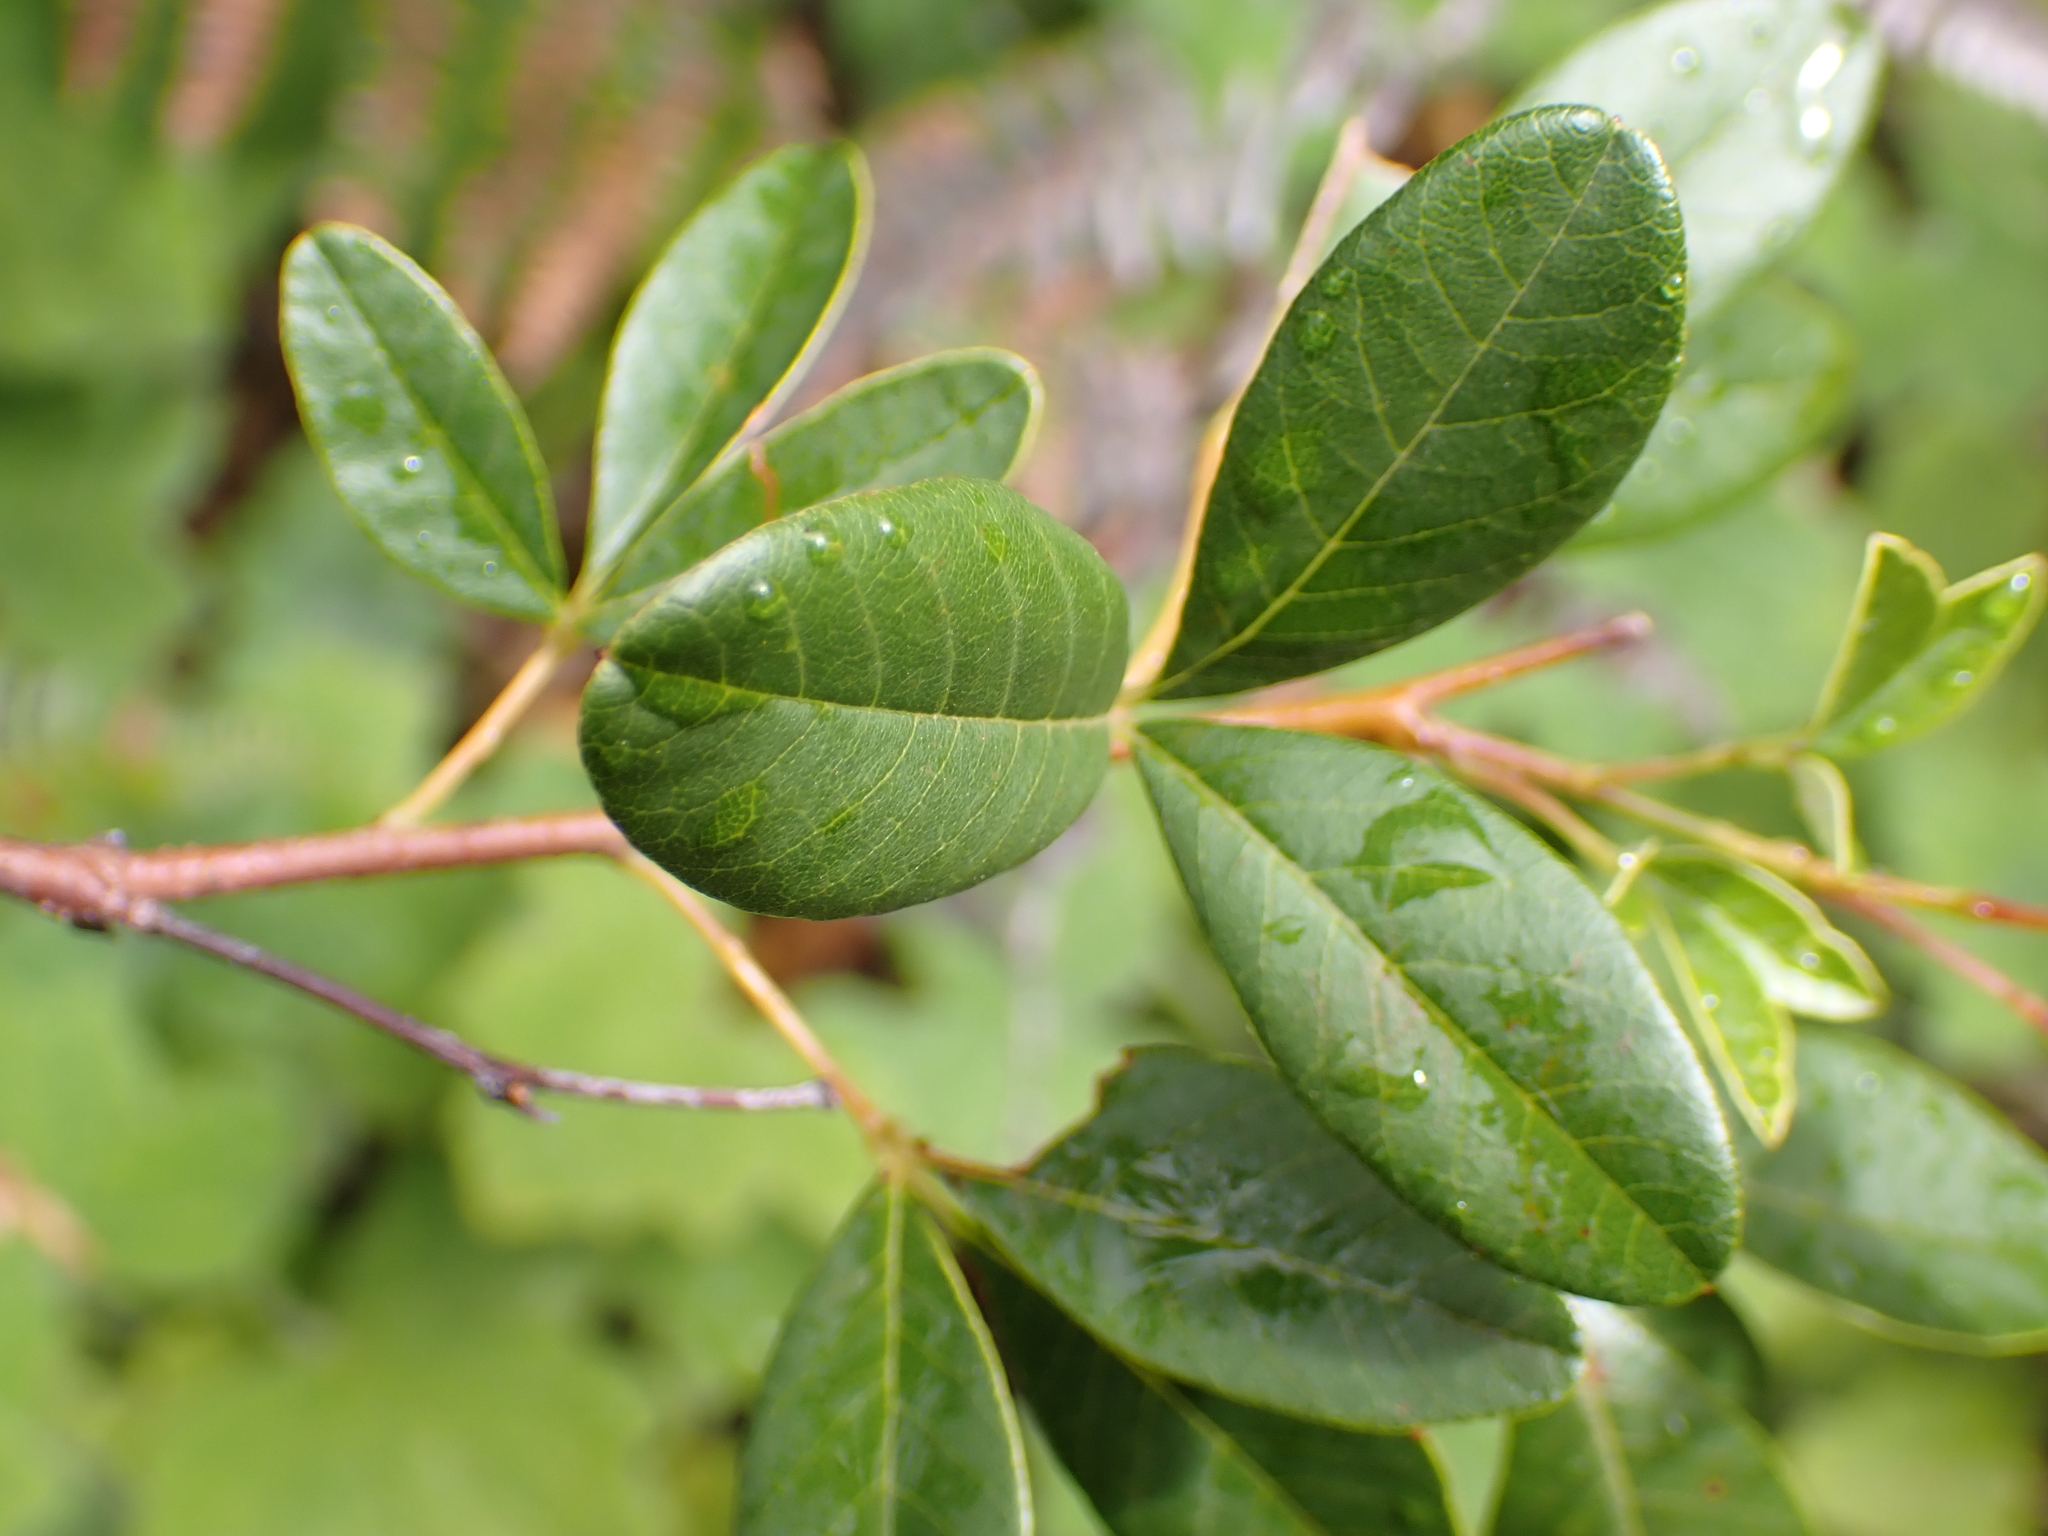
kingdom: Plantae
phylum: Tracheophyta
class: Magnoliopsida
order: Sapindales
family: Anacardiaceae
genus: Searsia
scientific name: Searsia tomentosa
